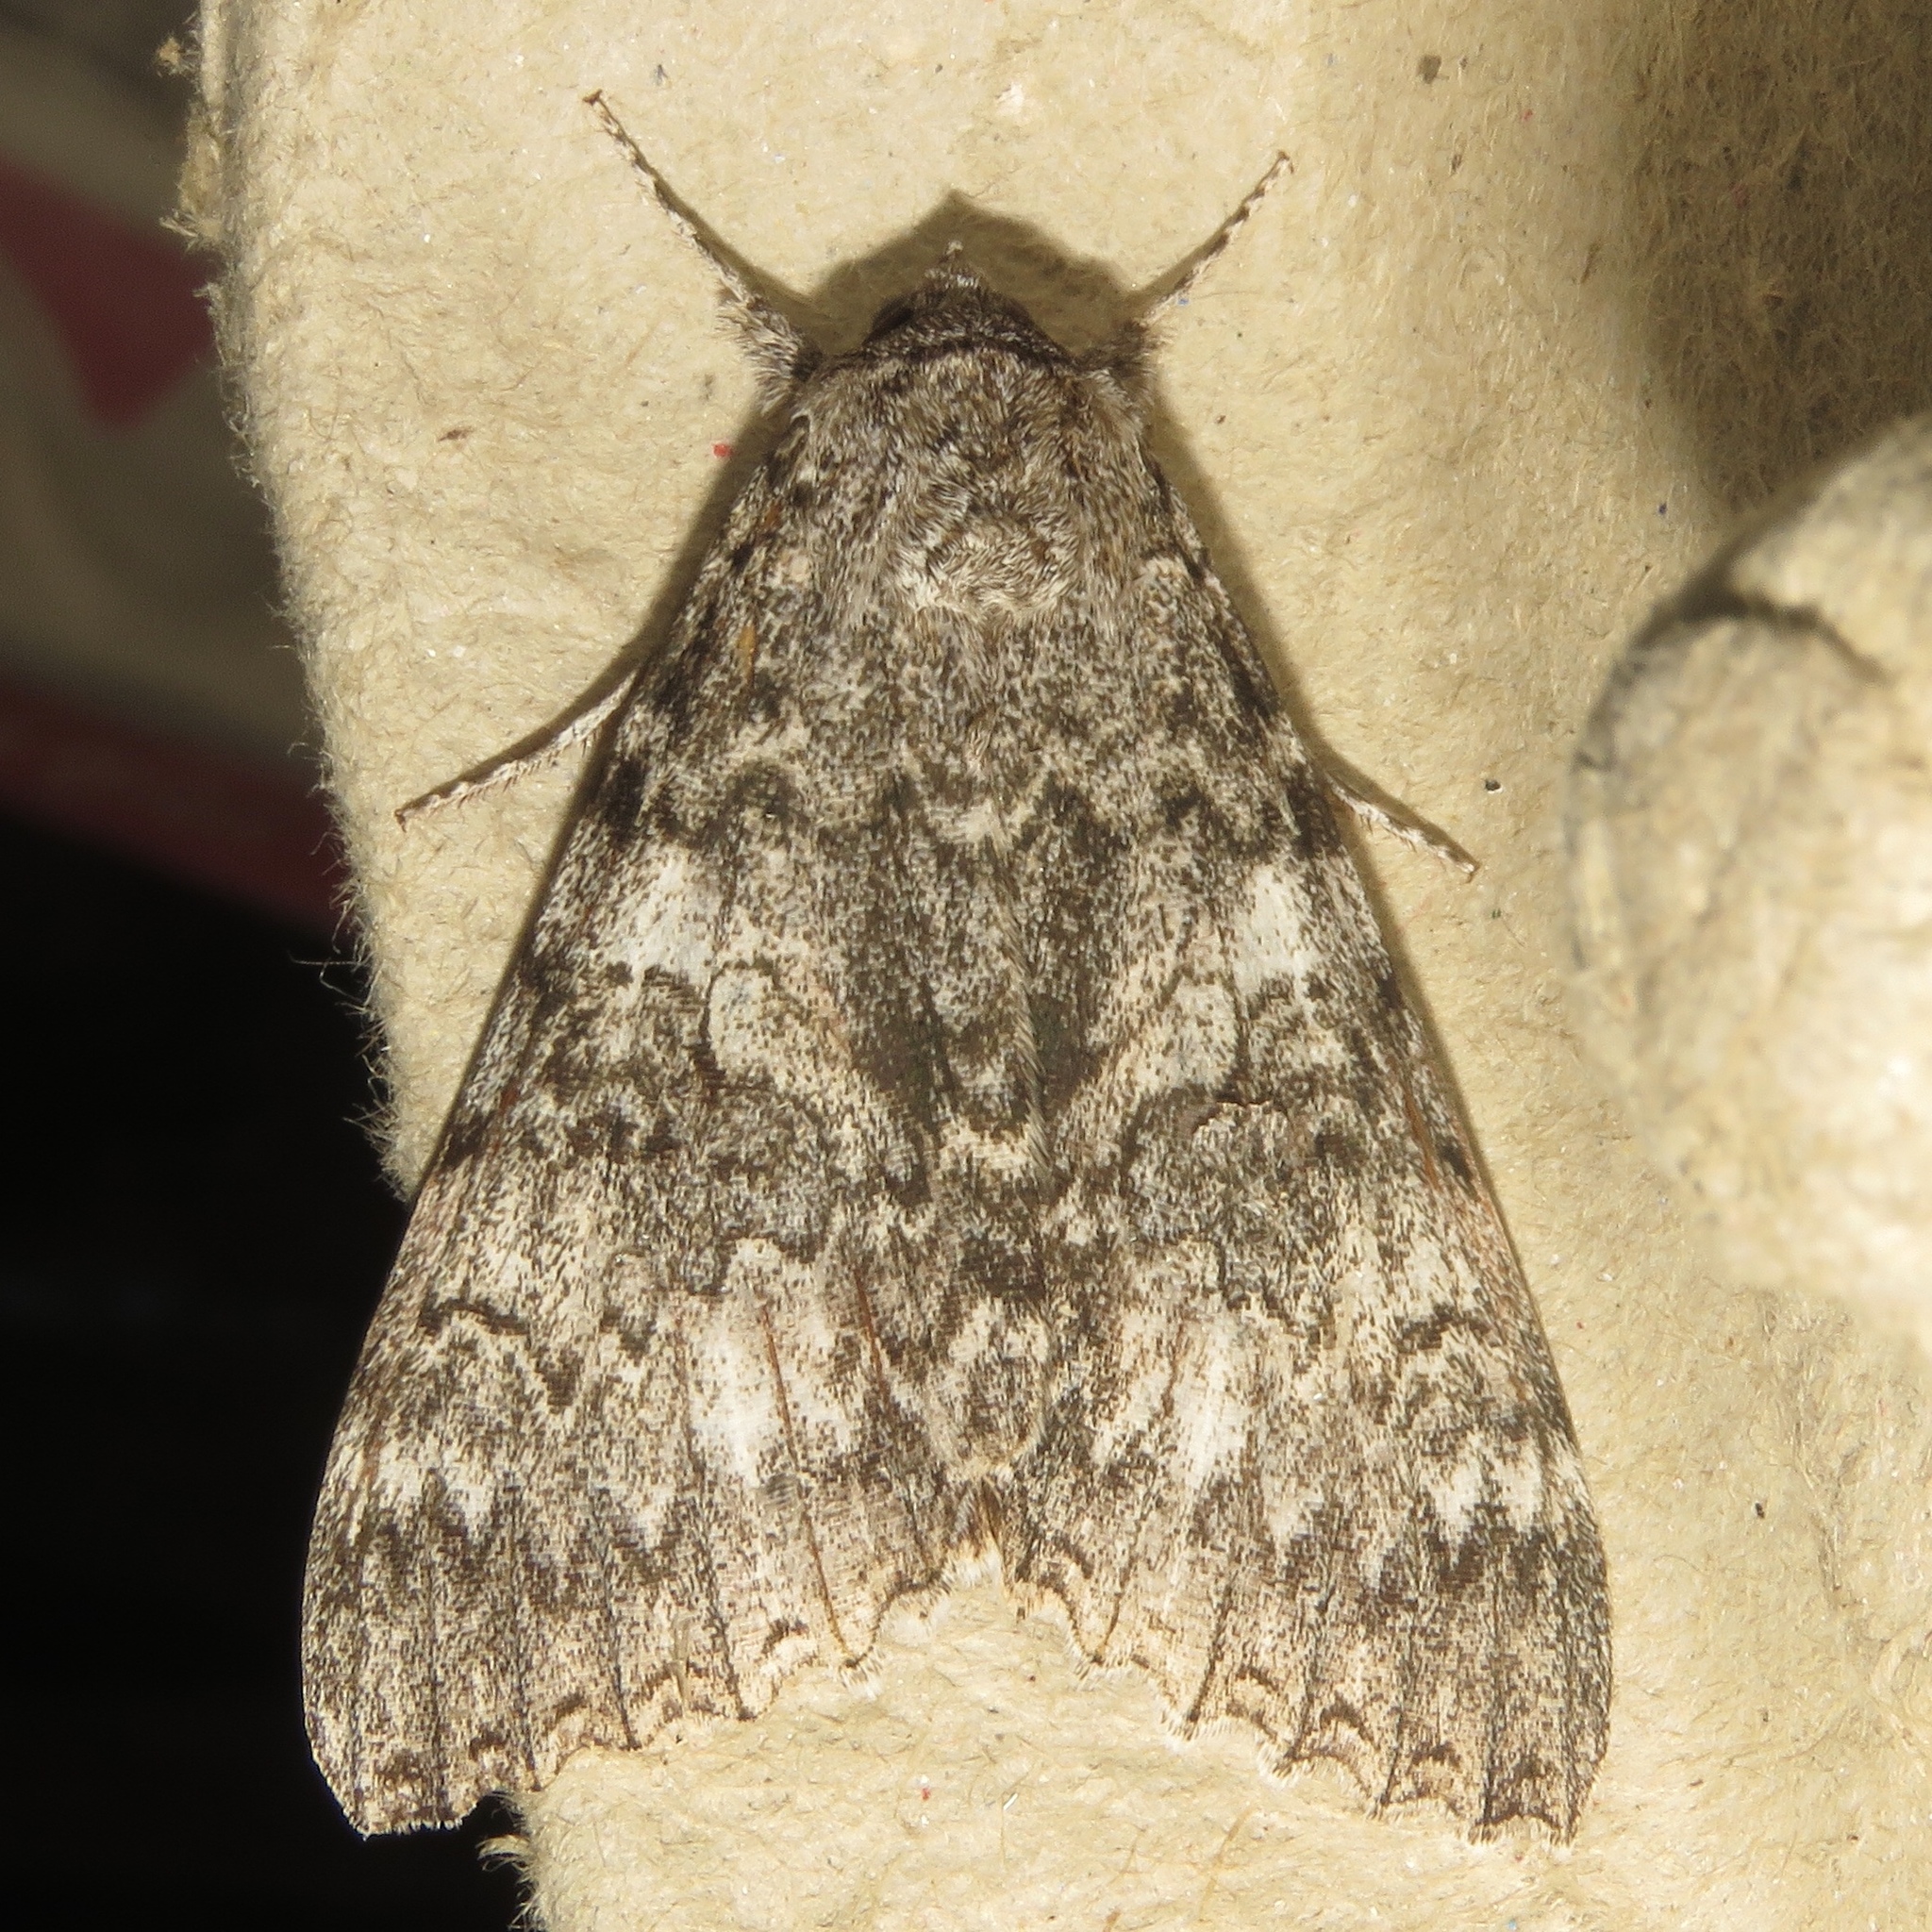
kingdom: Animalia
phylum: Arthropoda
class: Insecta
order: Lepidoptera
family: Erebidae
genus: Catocala
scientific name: Catocala unijuga
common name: Once-married underwing
